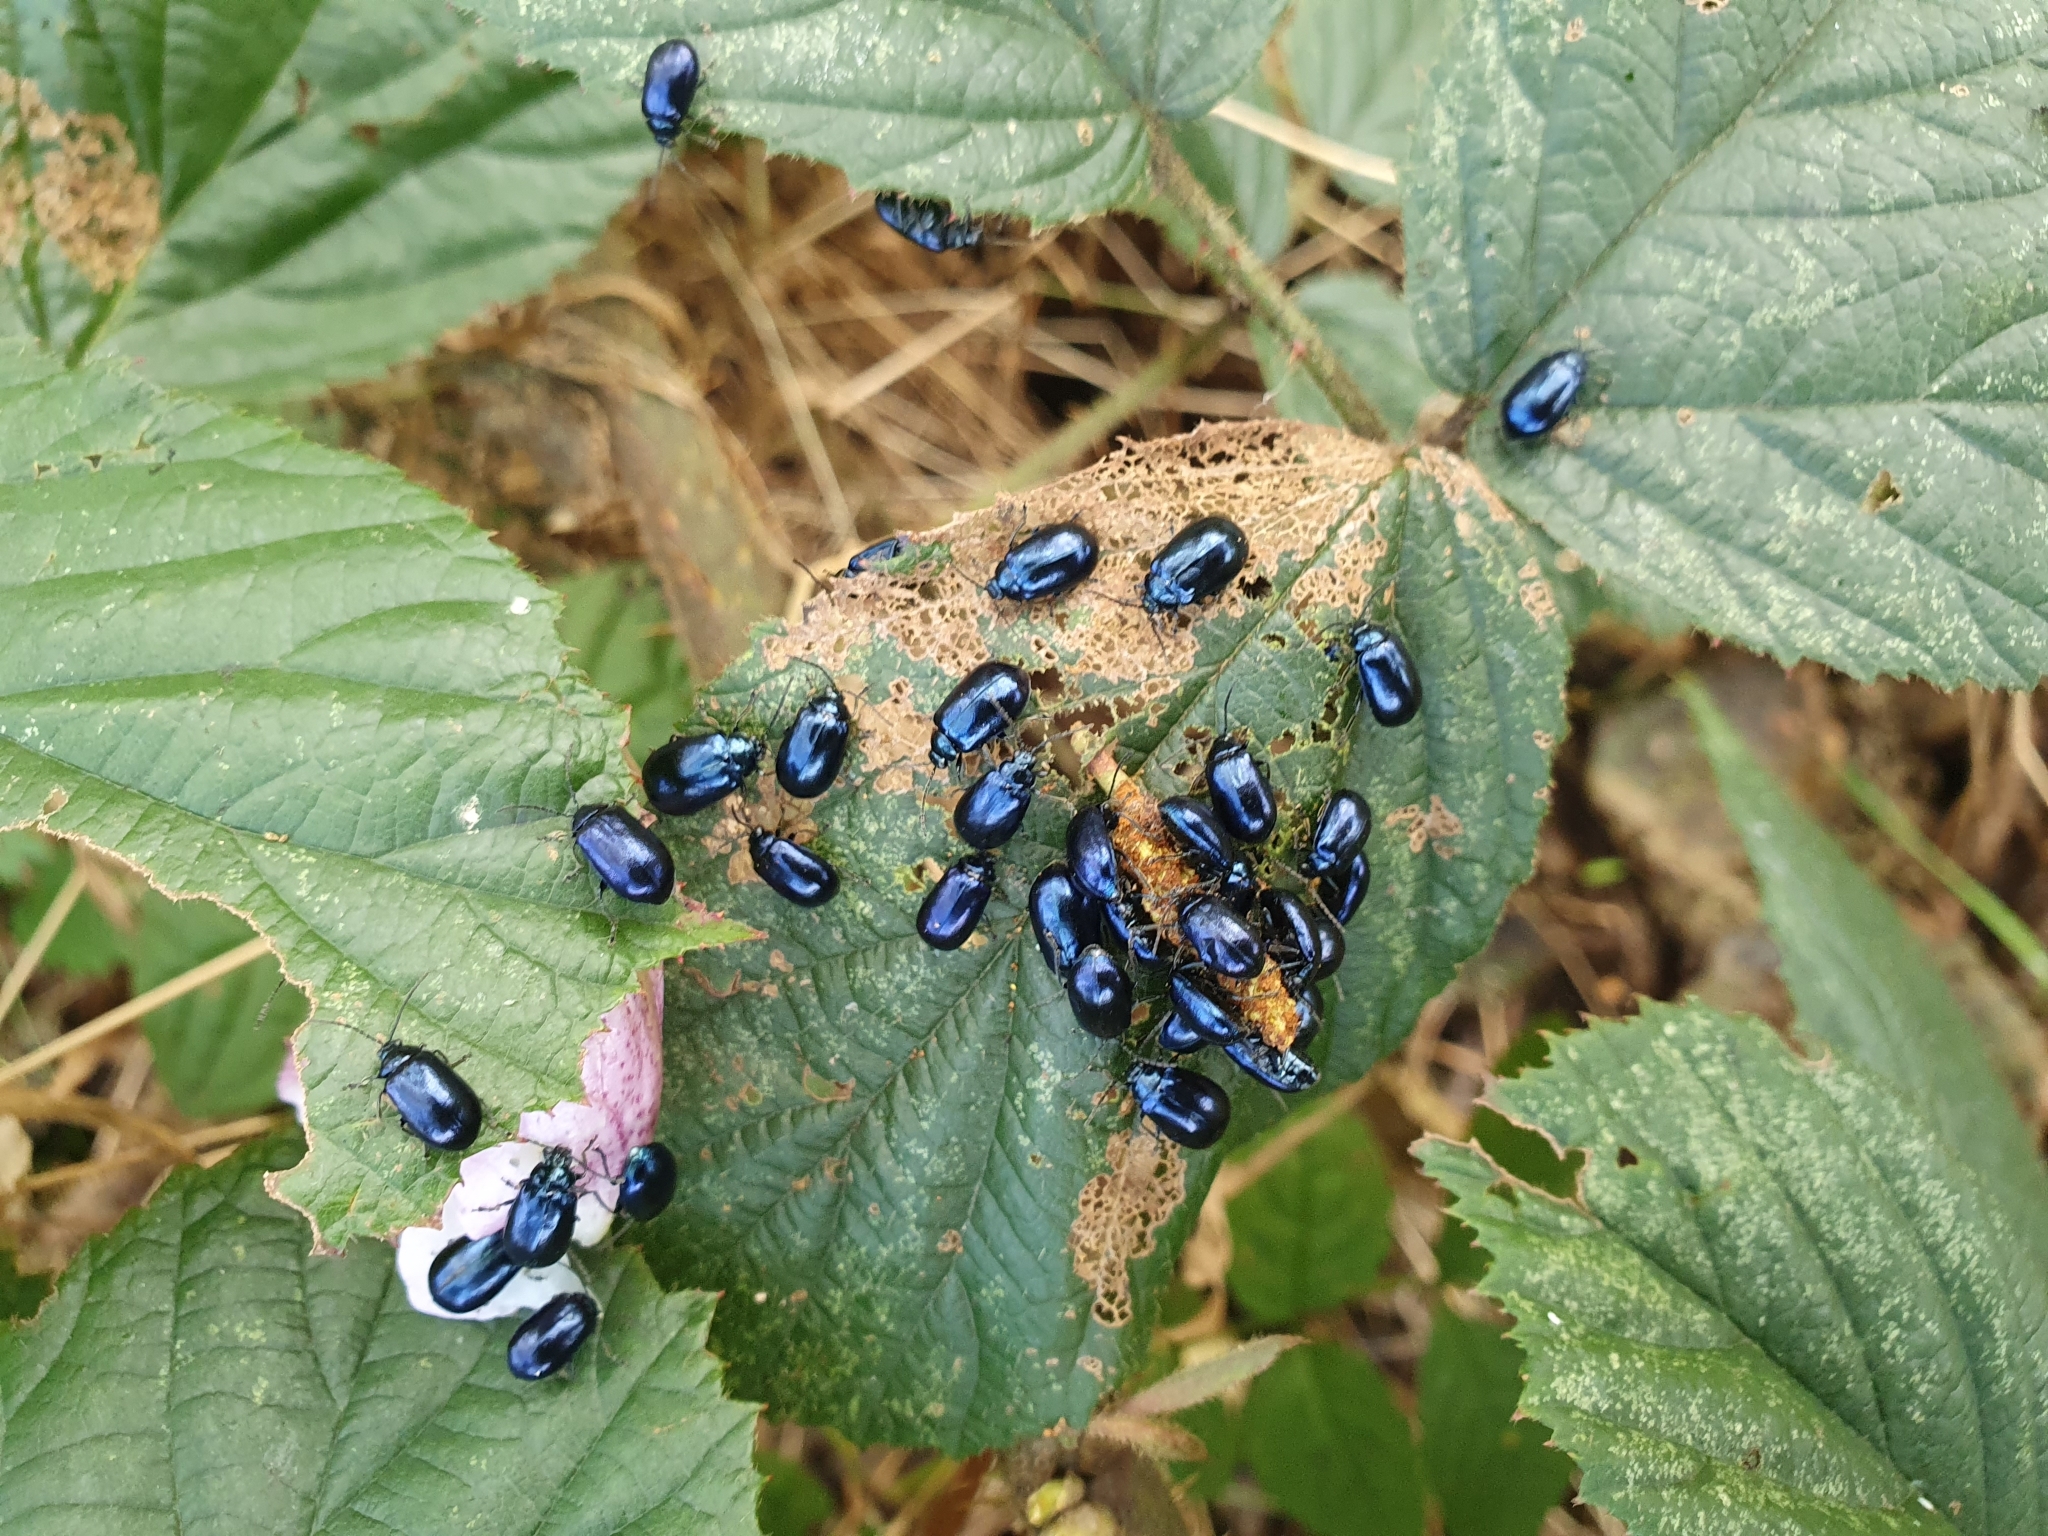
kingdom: Animalia
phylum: Arthropoda
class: Insecta
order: Coleoptera
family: Chrysomelidae
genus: Agelastica
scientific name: Agelastica alni
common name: Alder leaf beetle
